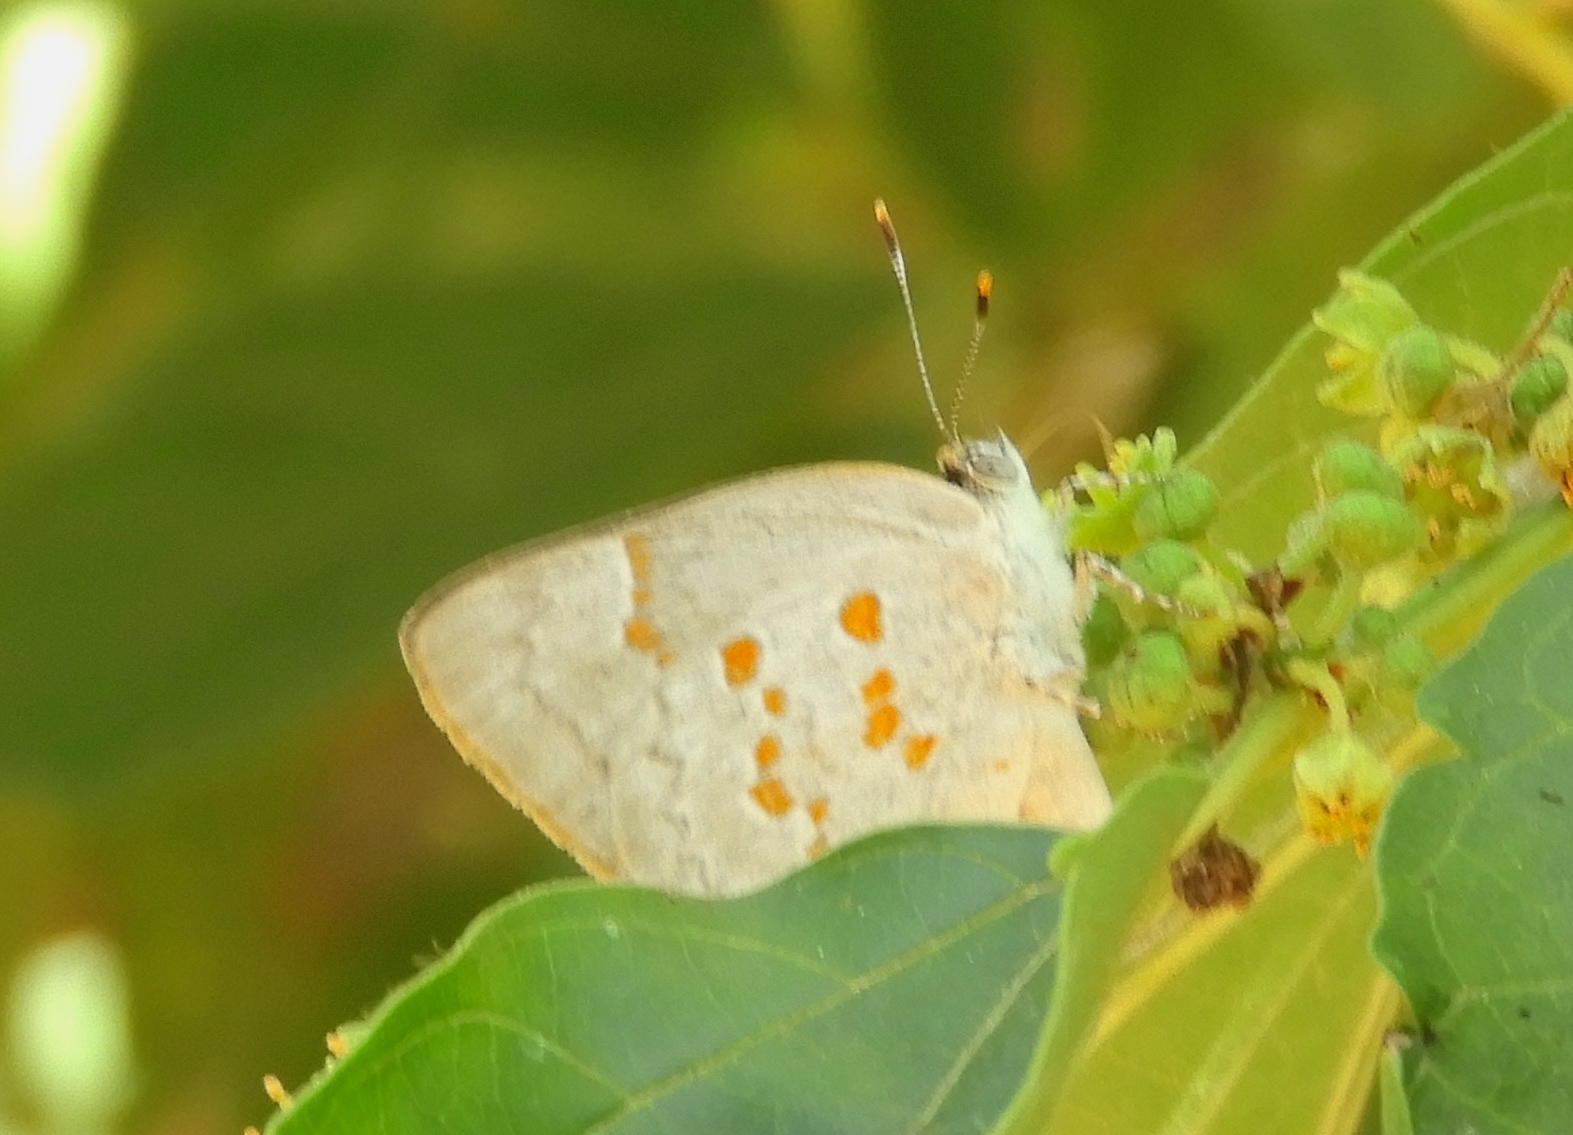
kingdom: Animalia
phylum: Arthropoda
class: Insecta
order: Lepidoptera
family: Lycaenidae
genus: Tmolus
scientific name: Tmolus echion
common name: Red-spotted hairstreak
